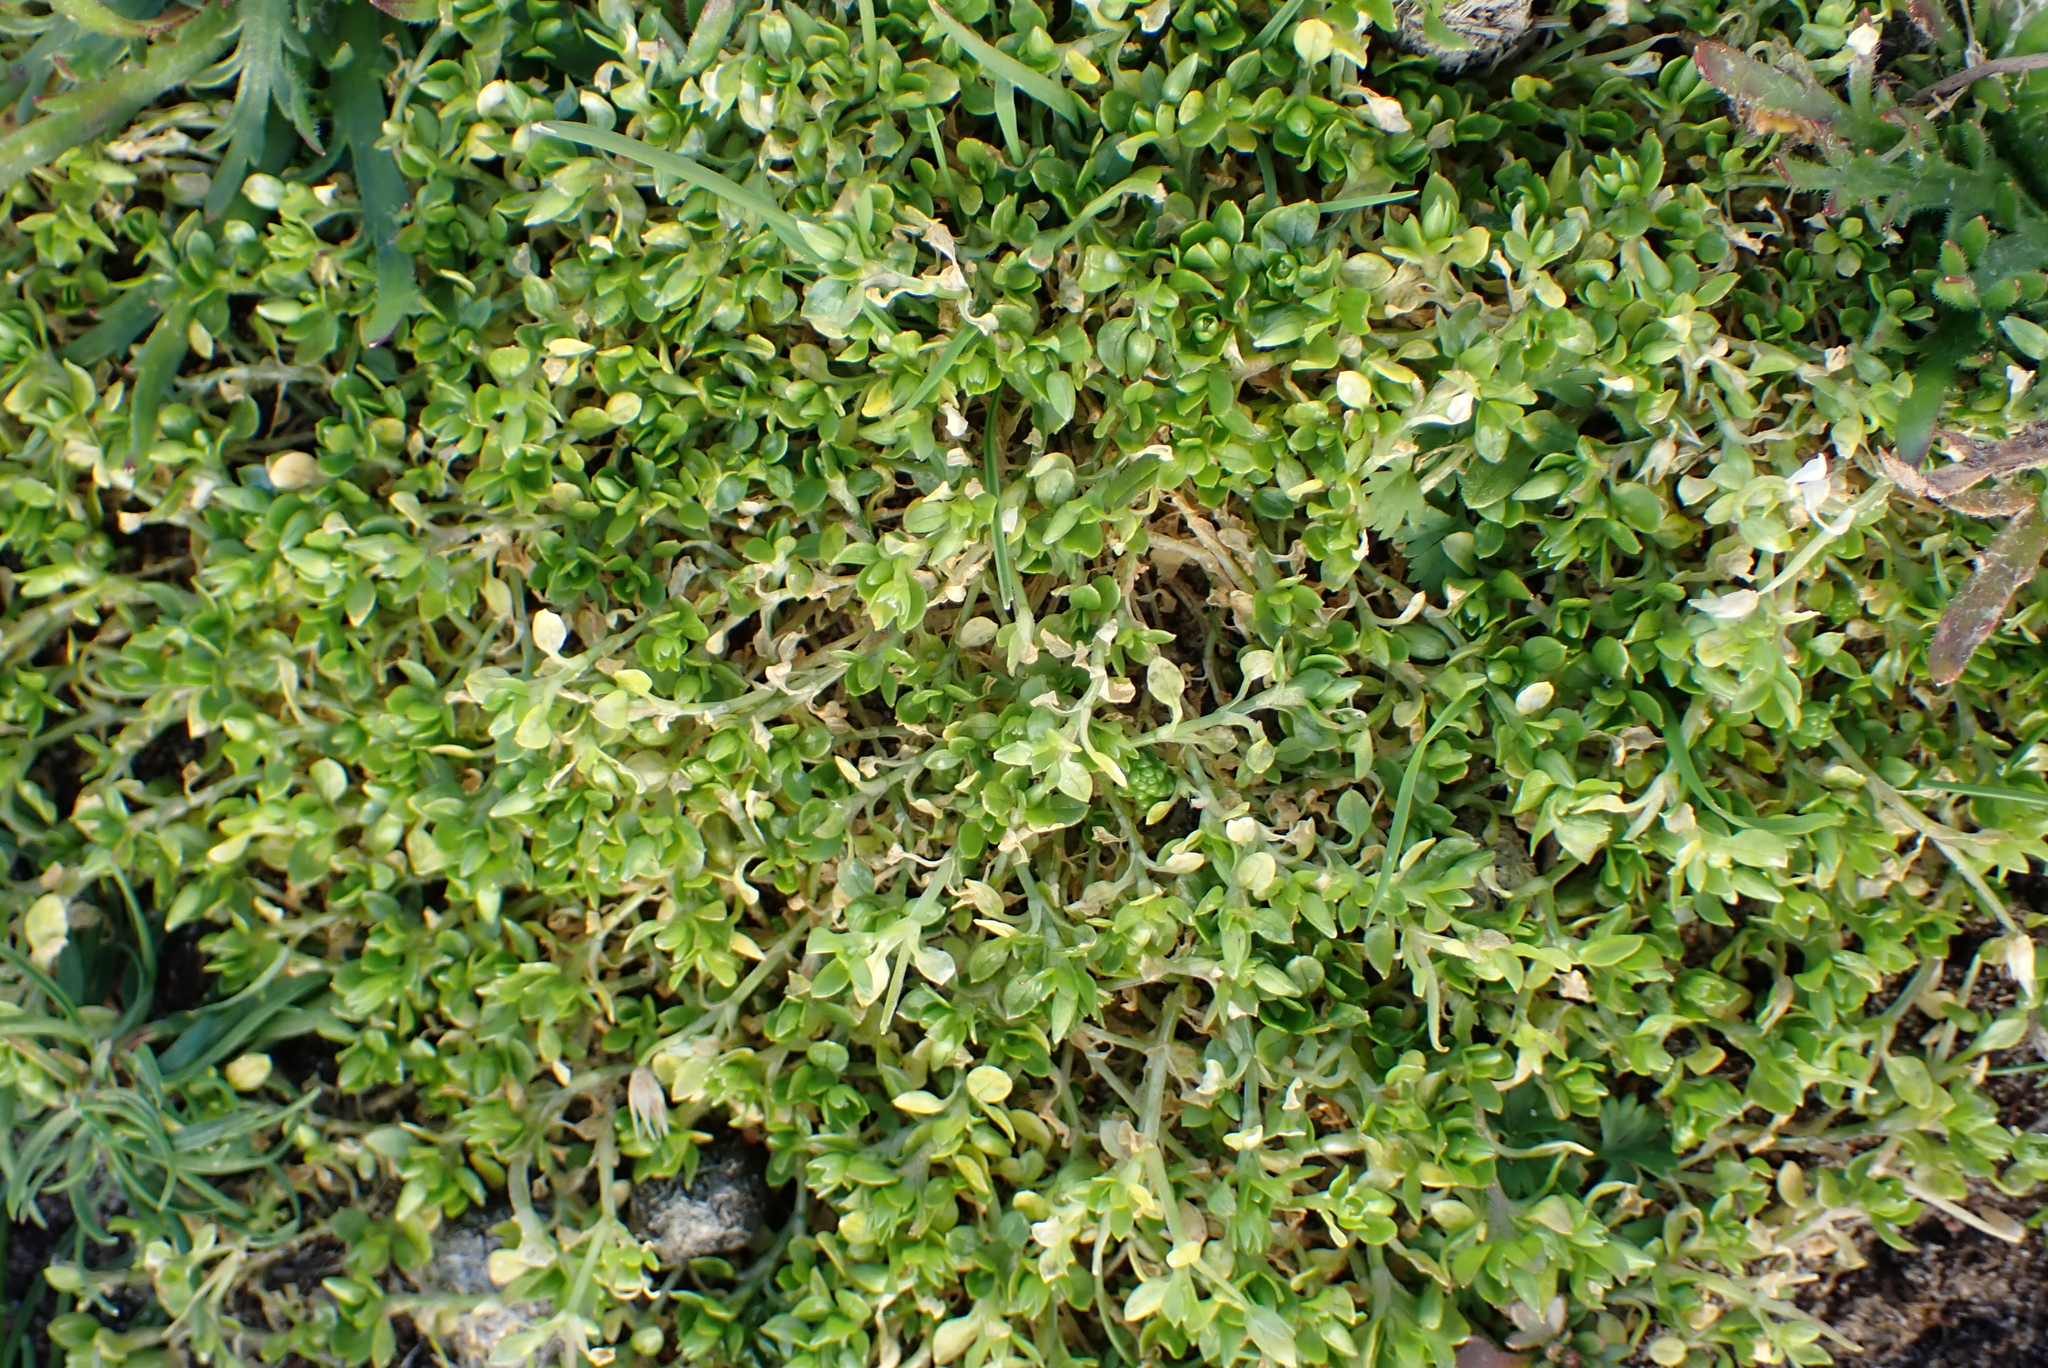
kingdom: Plantae
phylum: Tracheophyta
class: Magnoliopsida
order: Caryophyllales
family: Caryophyllaceae
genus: Stellaria
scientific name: Stellaria apetala
